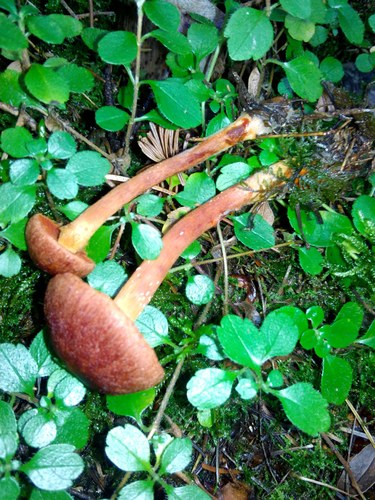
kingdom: Fungi
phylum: Basidiomycota
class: Agaricomycetes
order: Agaricales
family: Cortinariaceae
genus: Cortinarius
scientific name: Cortinarius
